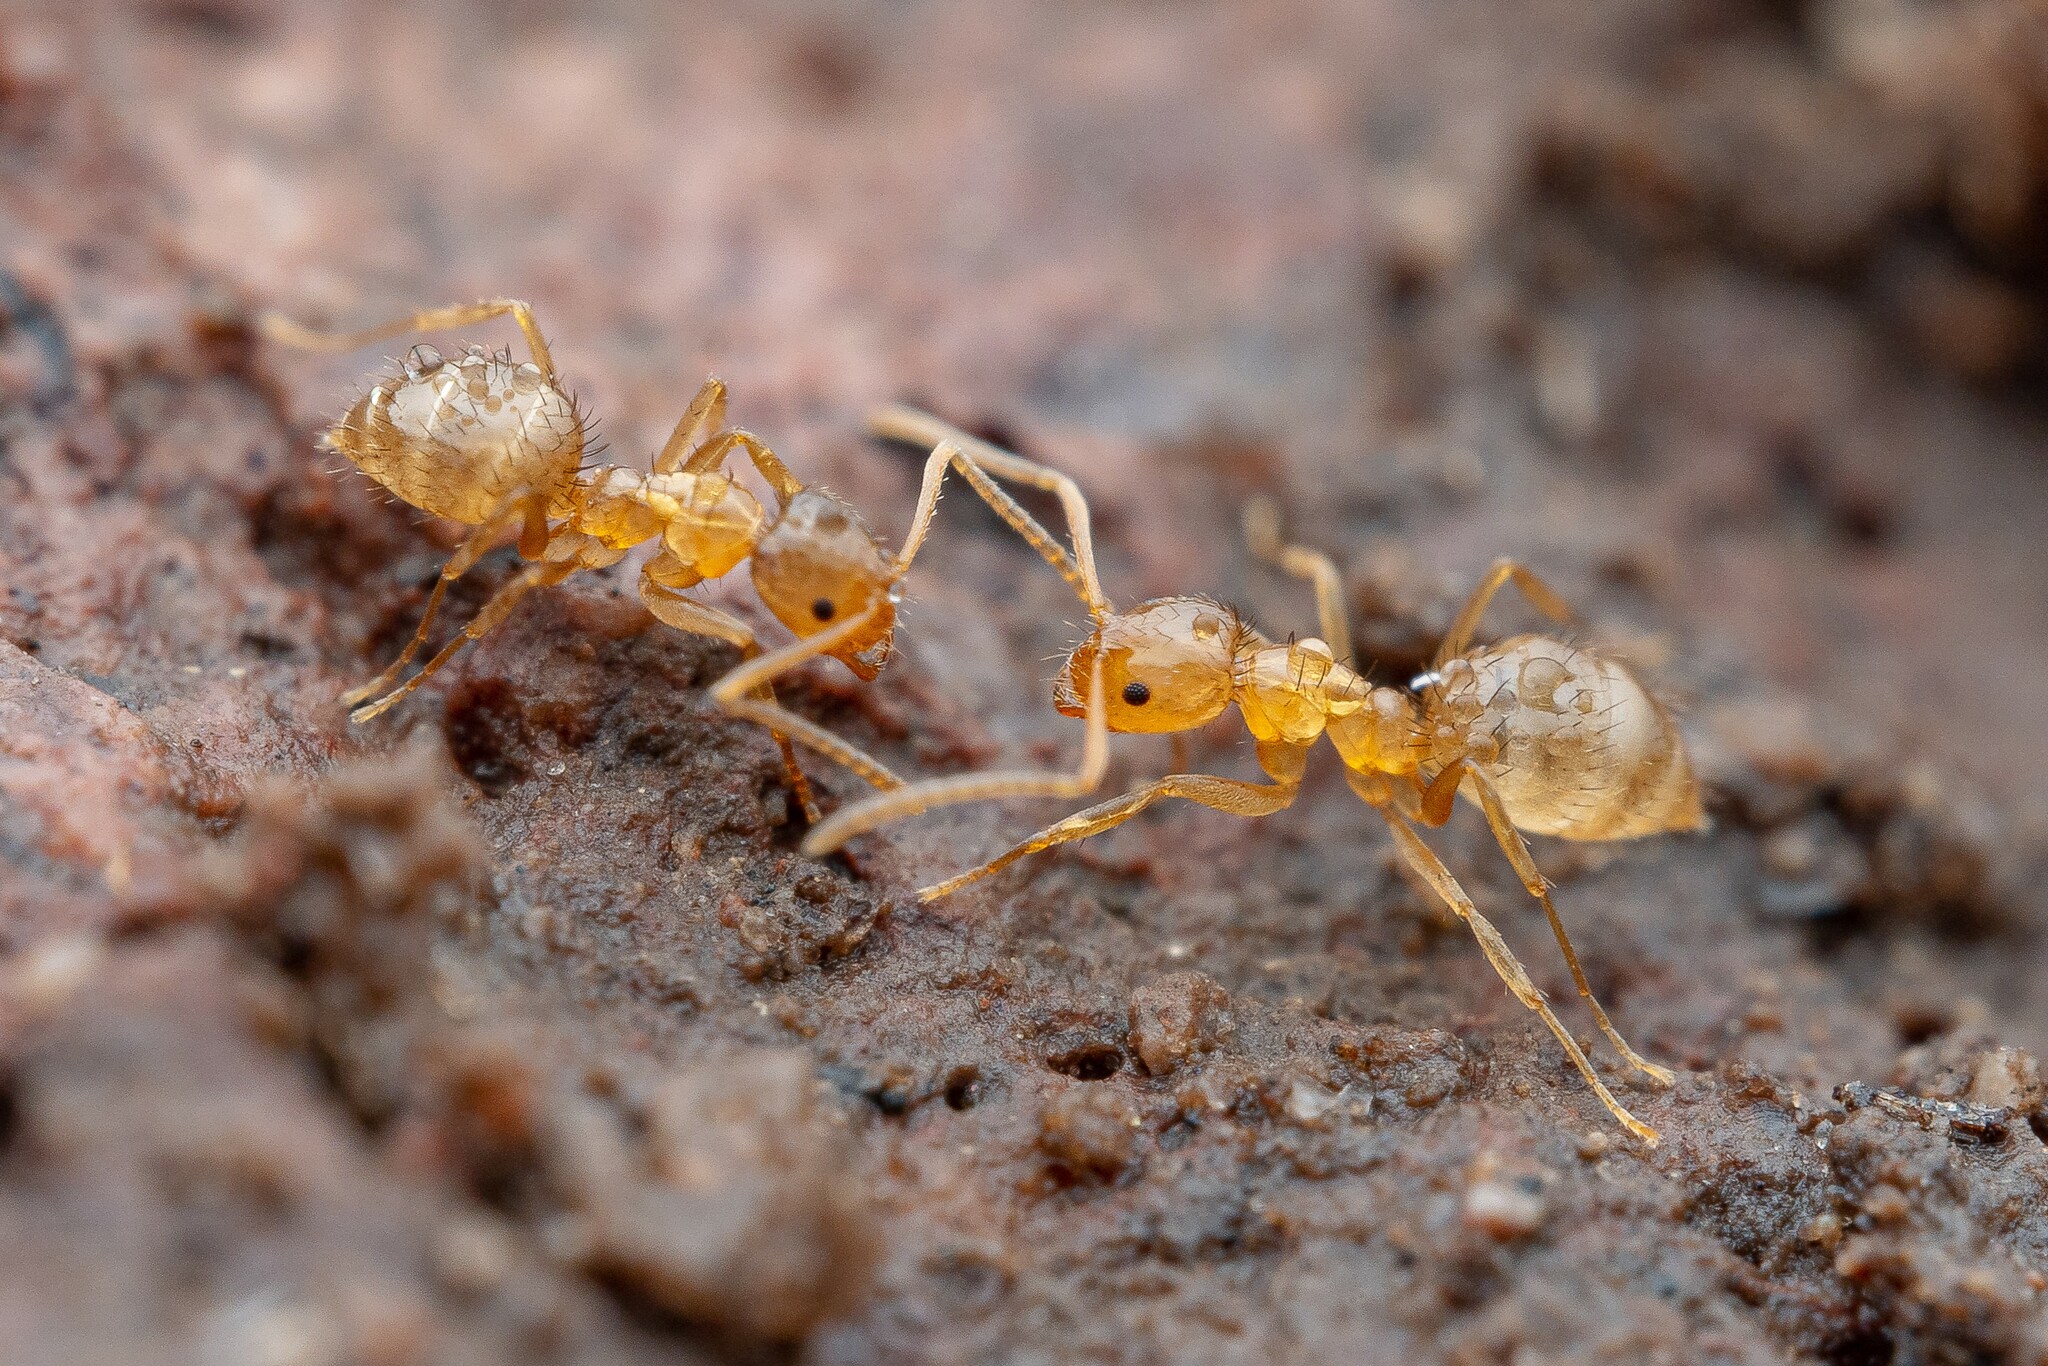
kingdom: Animalia
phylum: Arthropoda
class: Insecta
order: Hymenoptera
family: Formicidae
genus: Nylanderia
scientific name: Nylanderia terricola
